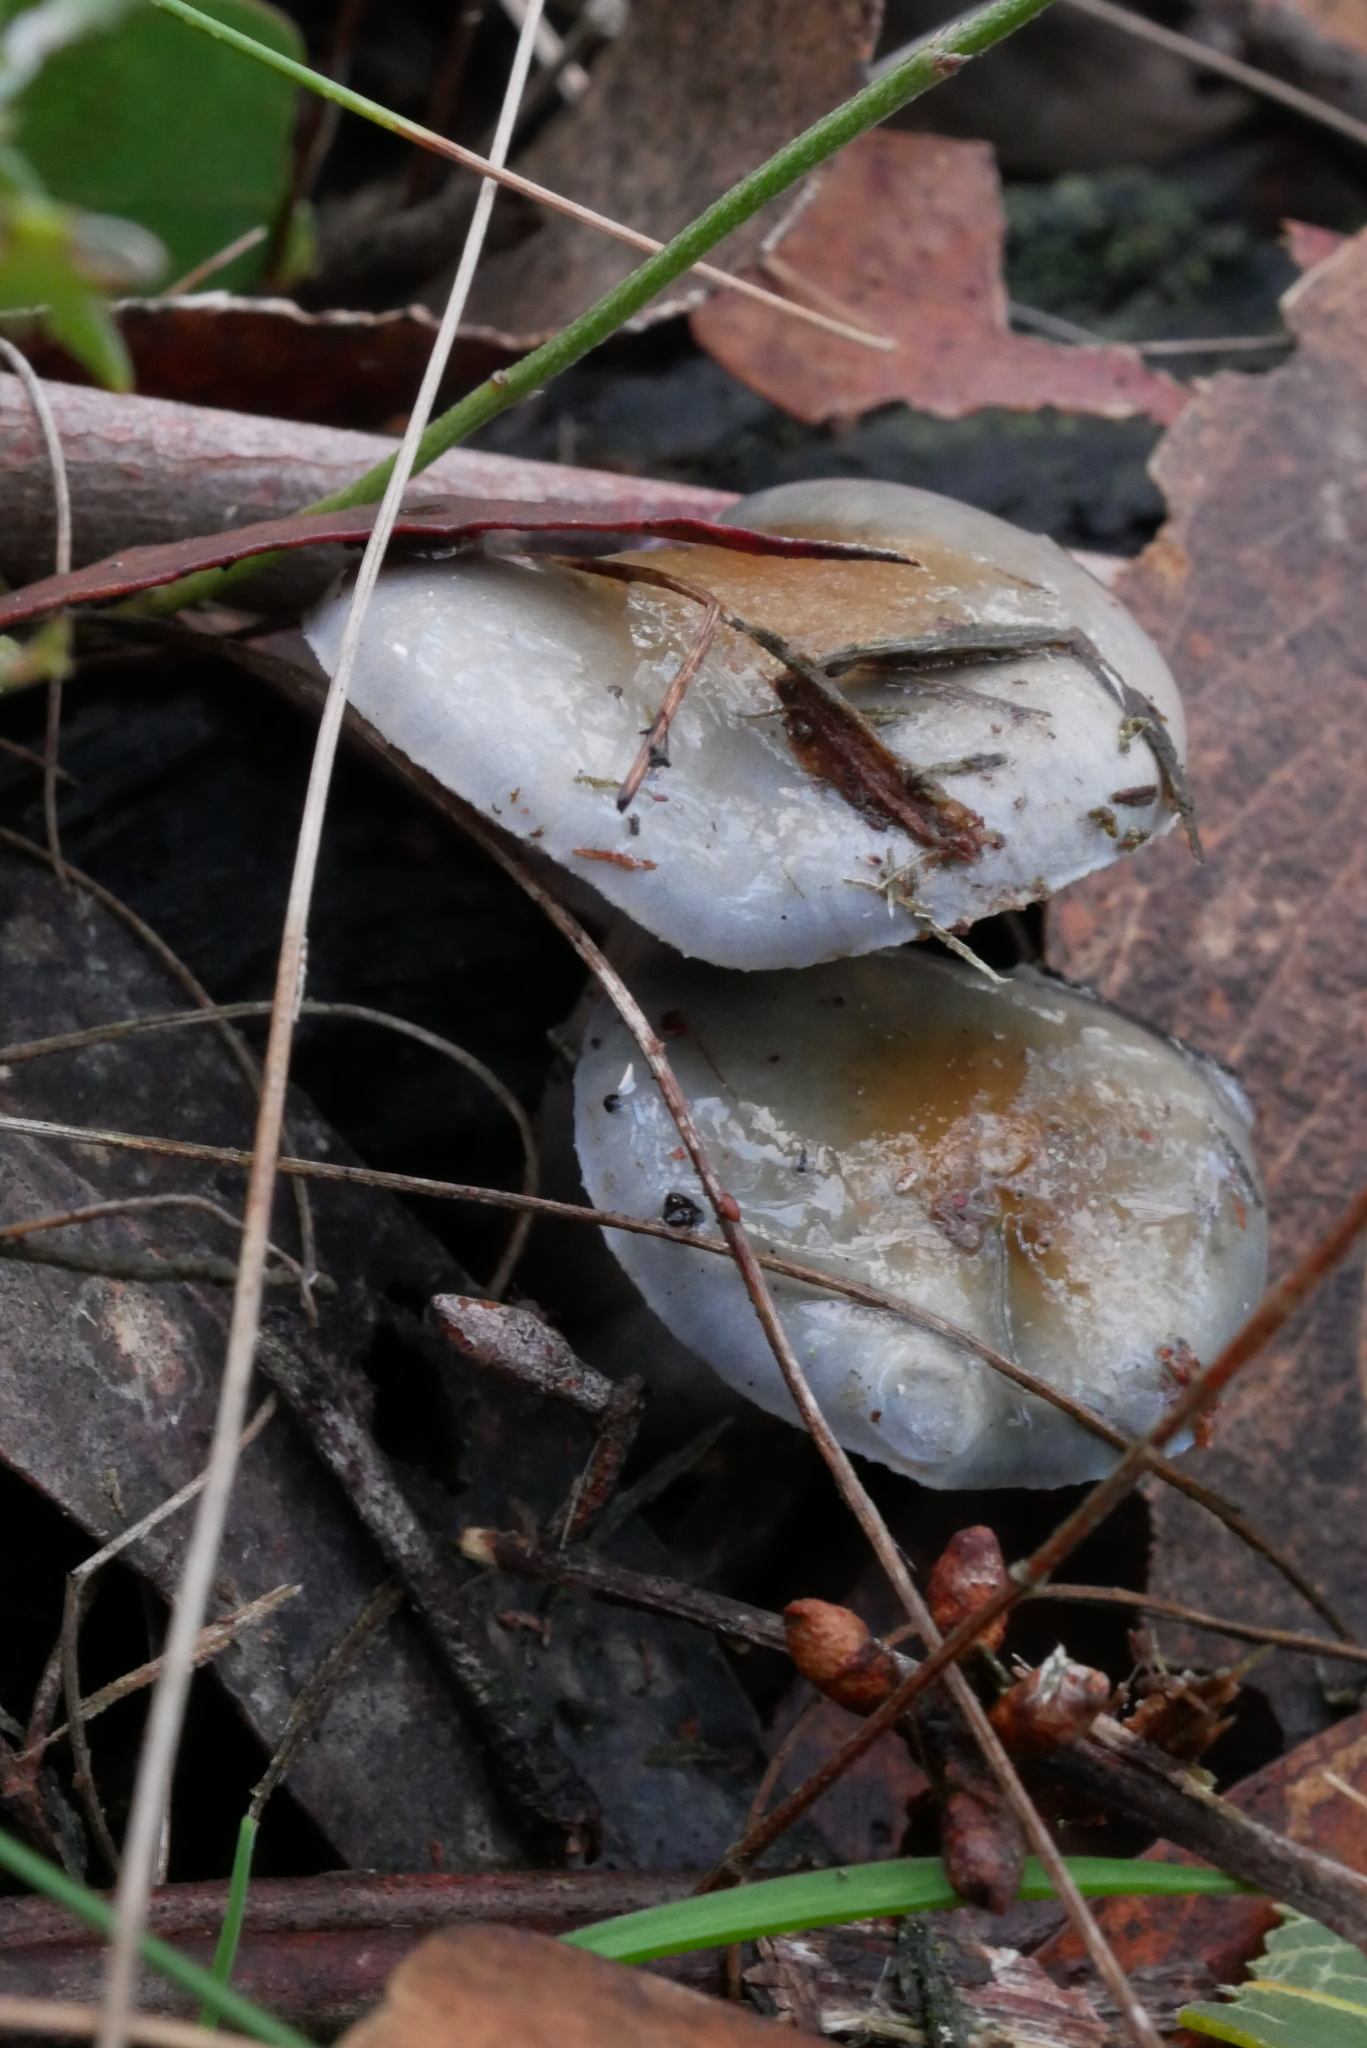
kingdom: Fungi
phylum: Basidiomycota
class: Agaricomycetes
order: Agaricales
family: Cortinariaceae
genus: Cortinarius
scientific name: Cortinarius rotundisporus
